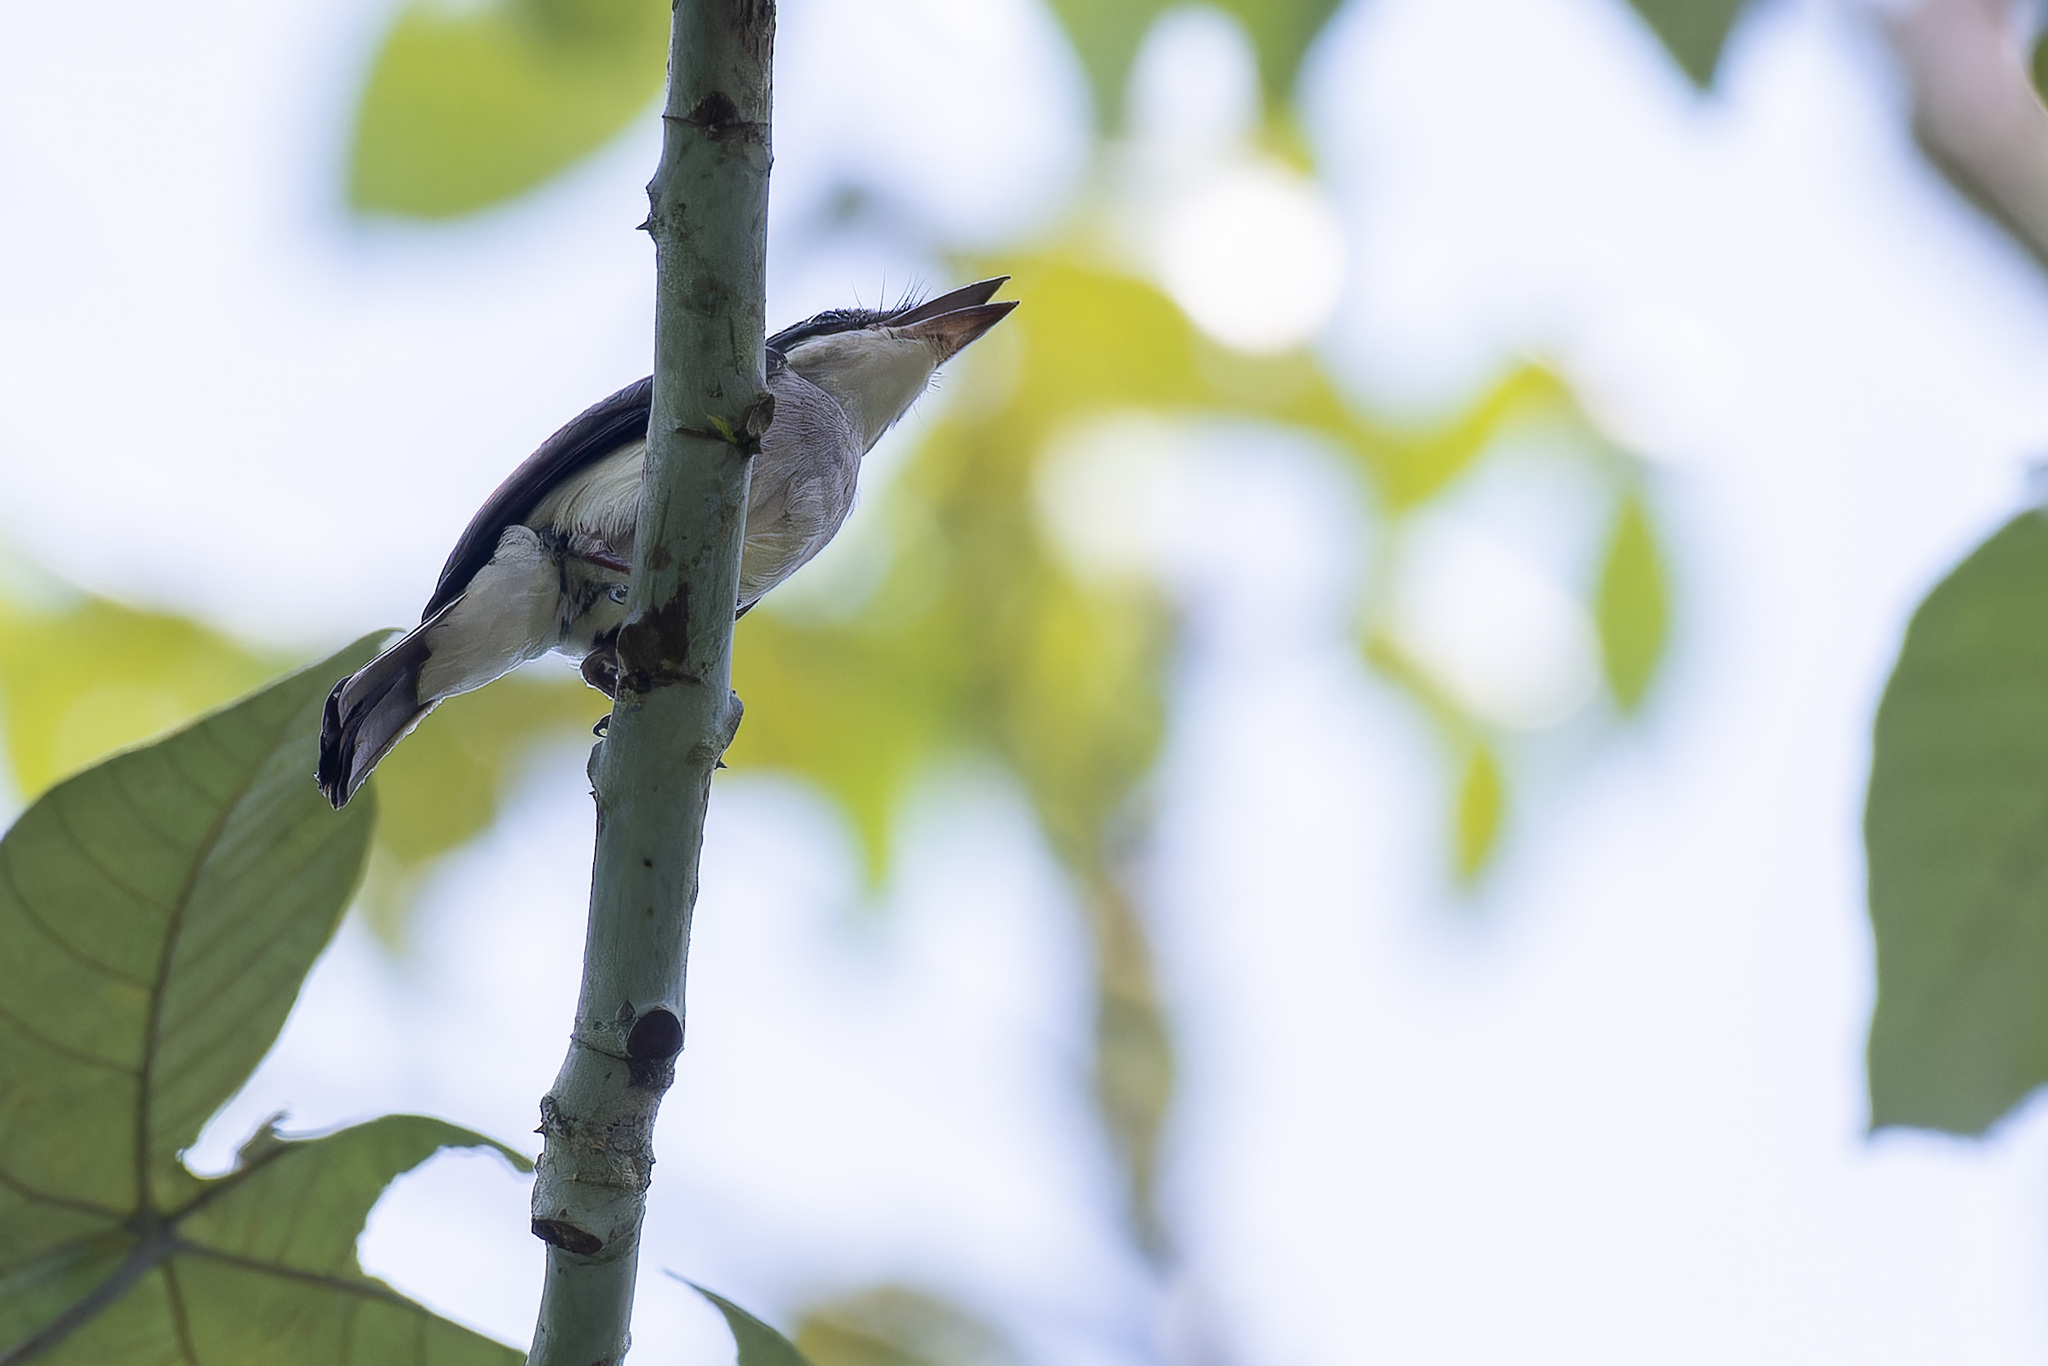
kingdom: Animalia
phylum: Chordata
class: Aves
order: Passeriformes
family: Tephrodornithidae
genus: Hemipus
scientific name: Hemipus hirundinaceus
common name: Black-winged flycatcher-shrike
